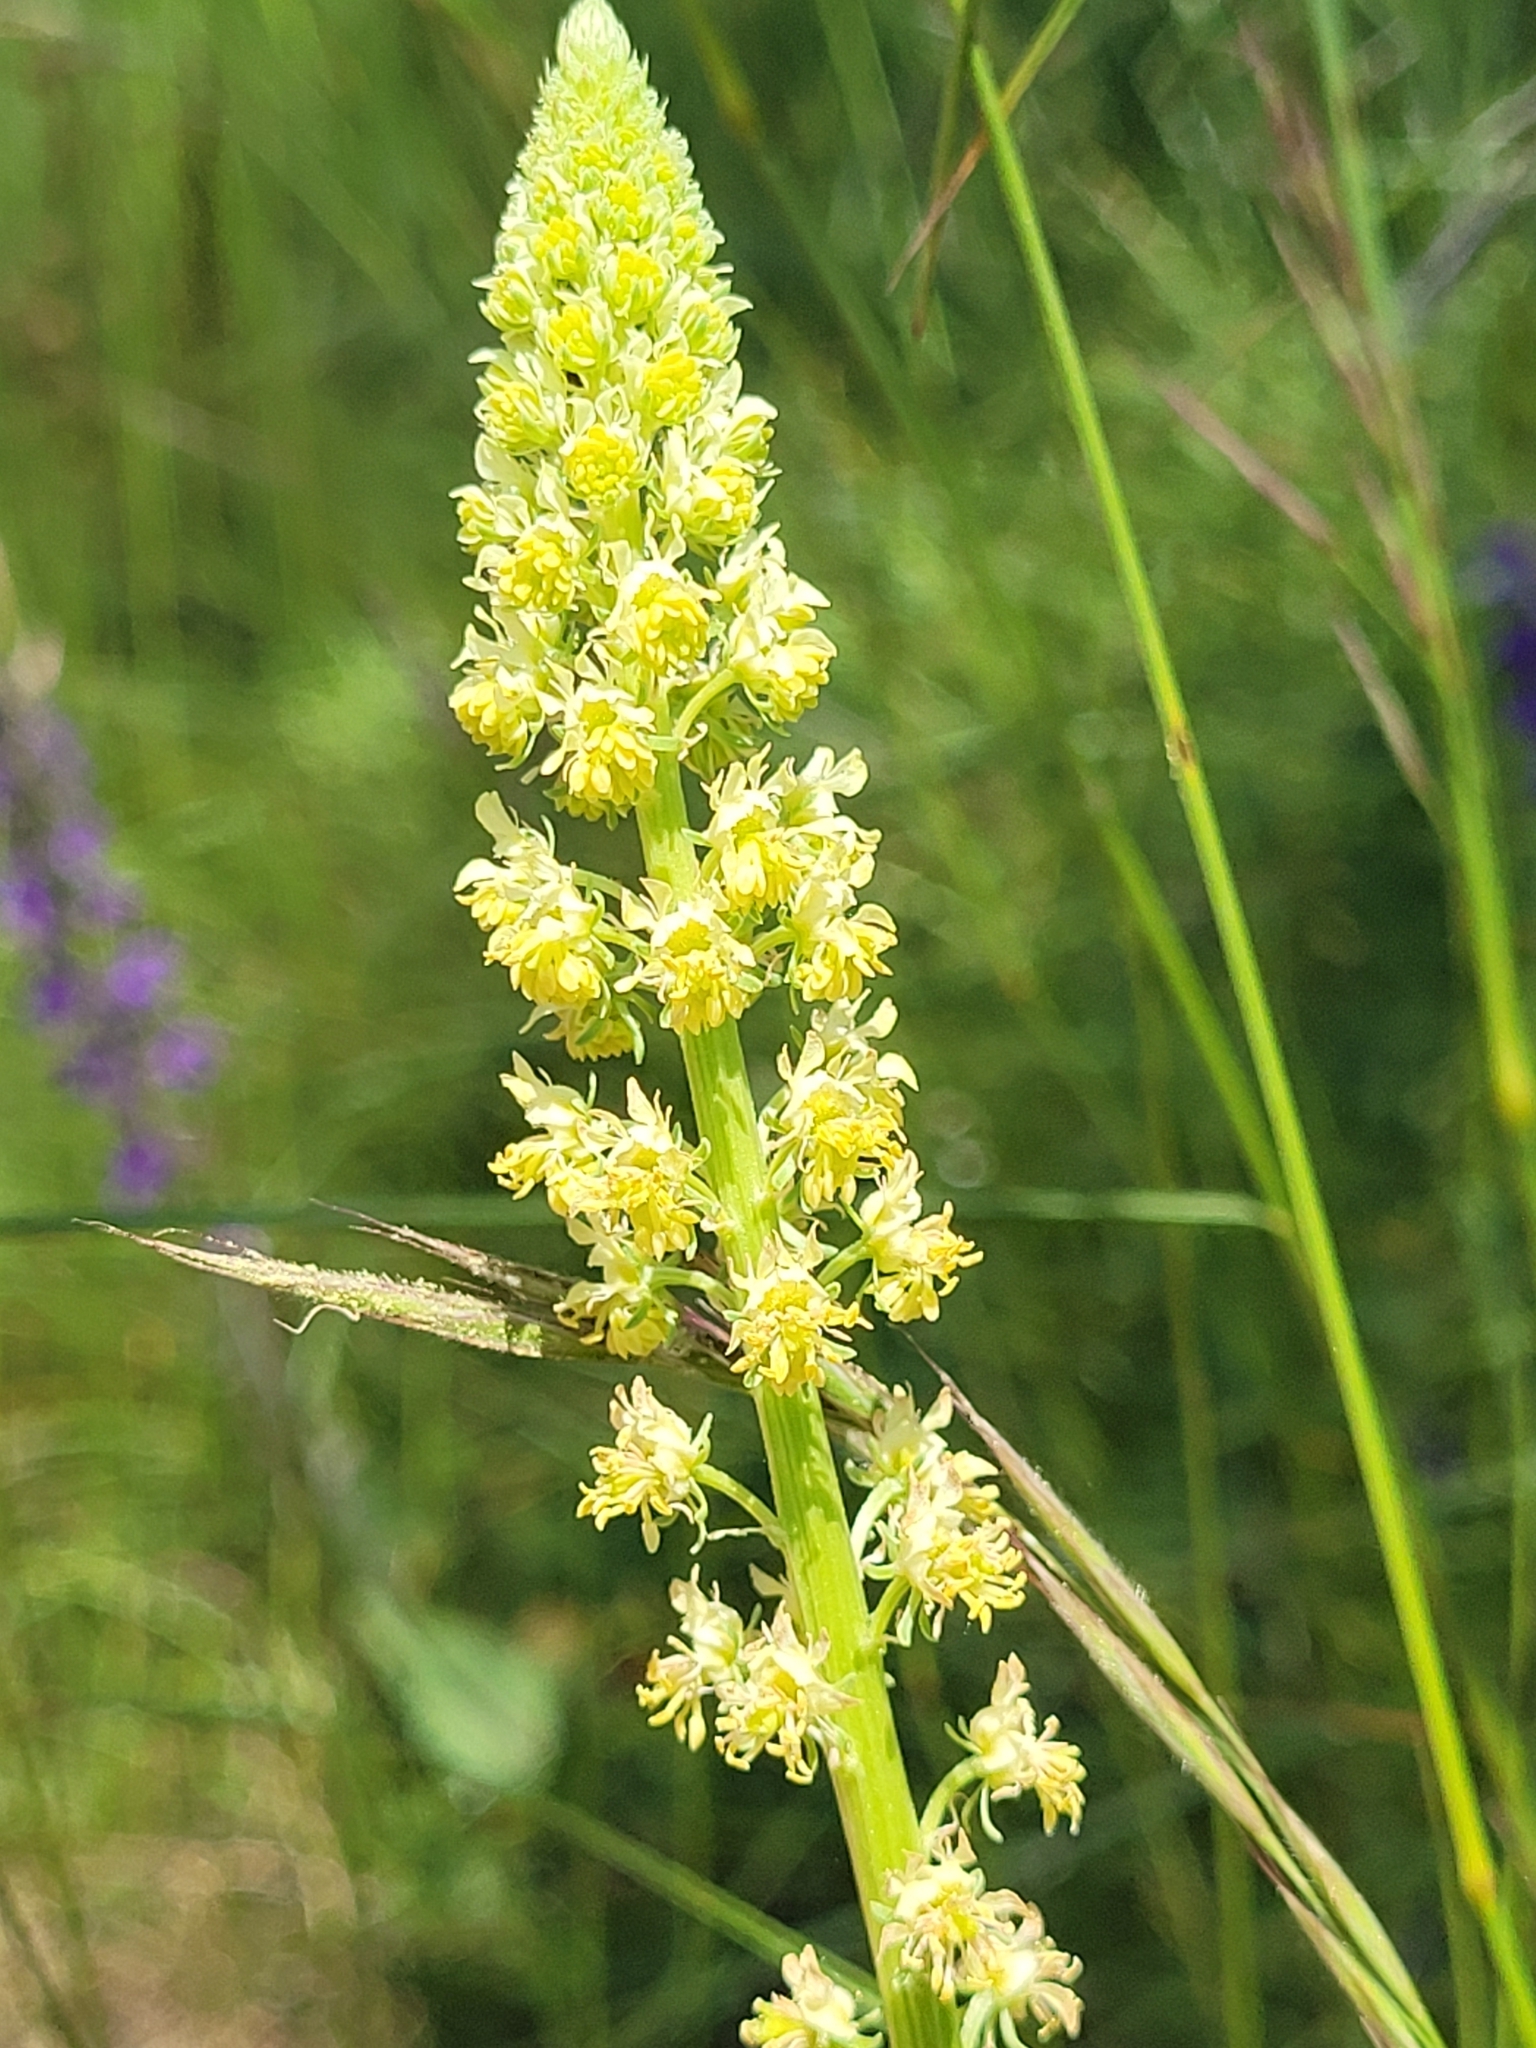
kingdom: Plantae
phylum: Tracheophyta
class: Magnoliopsida
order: Brassicales
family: Resedaceae
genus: Reseda
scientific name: Reseda luteola
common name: Weld
